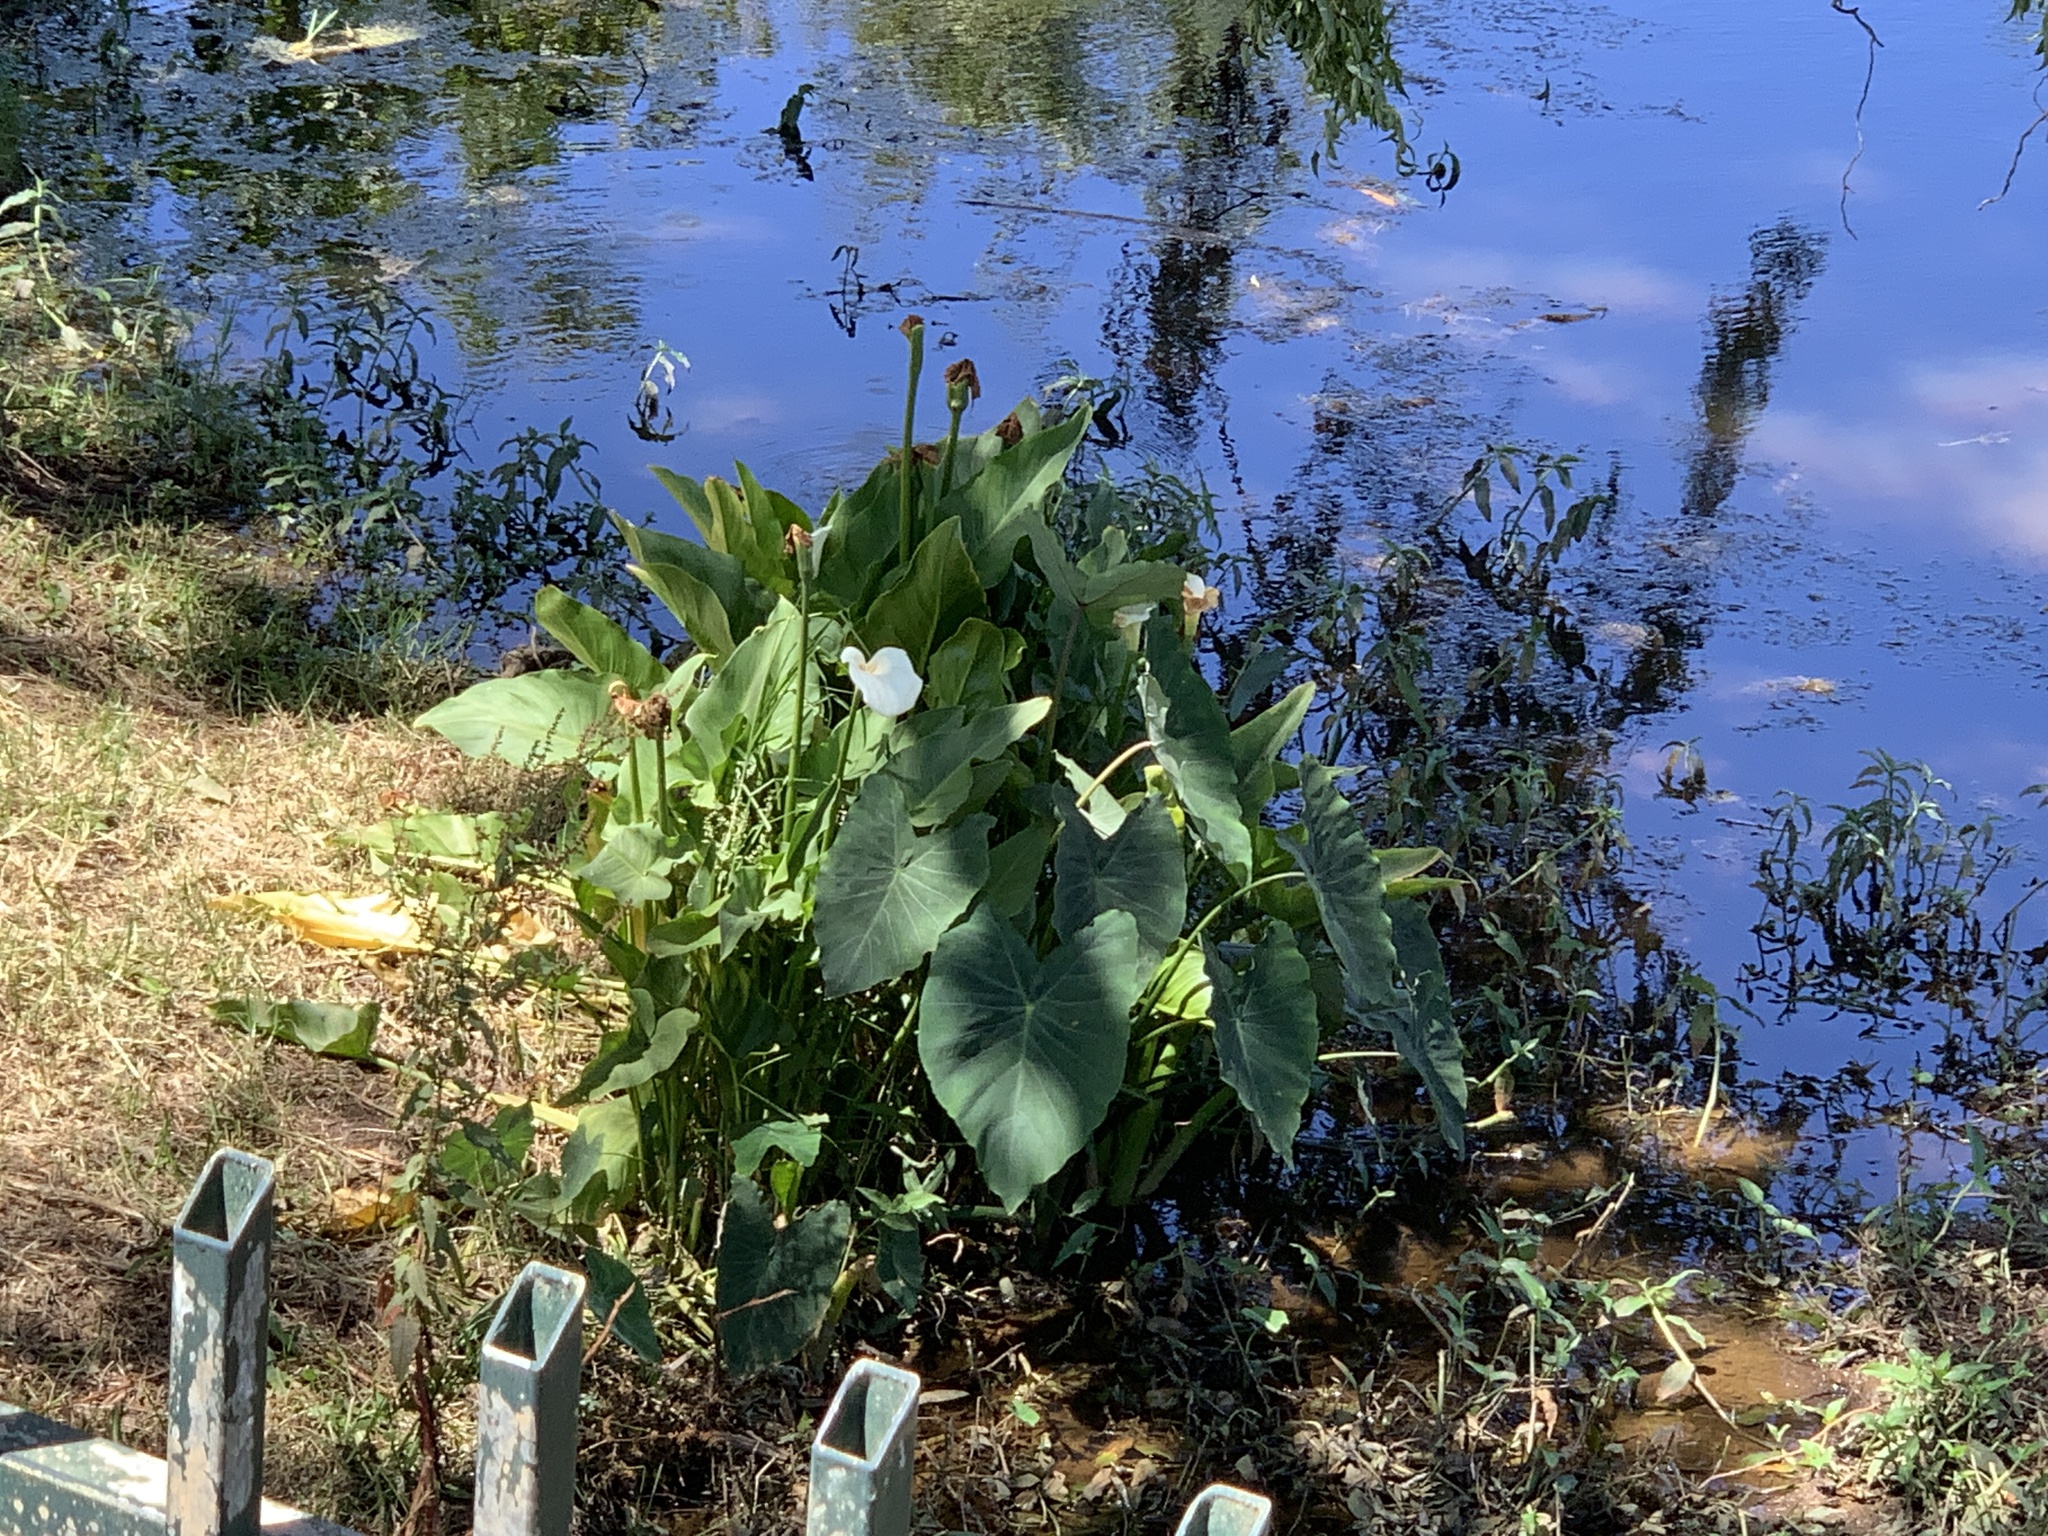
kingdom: Plantae
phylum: Tracheophyta
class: Liliopsida
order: Alismatales
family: Araceae
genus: Colocasia
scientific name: Colocasia esculenta
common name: Taro
